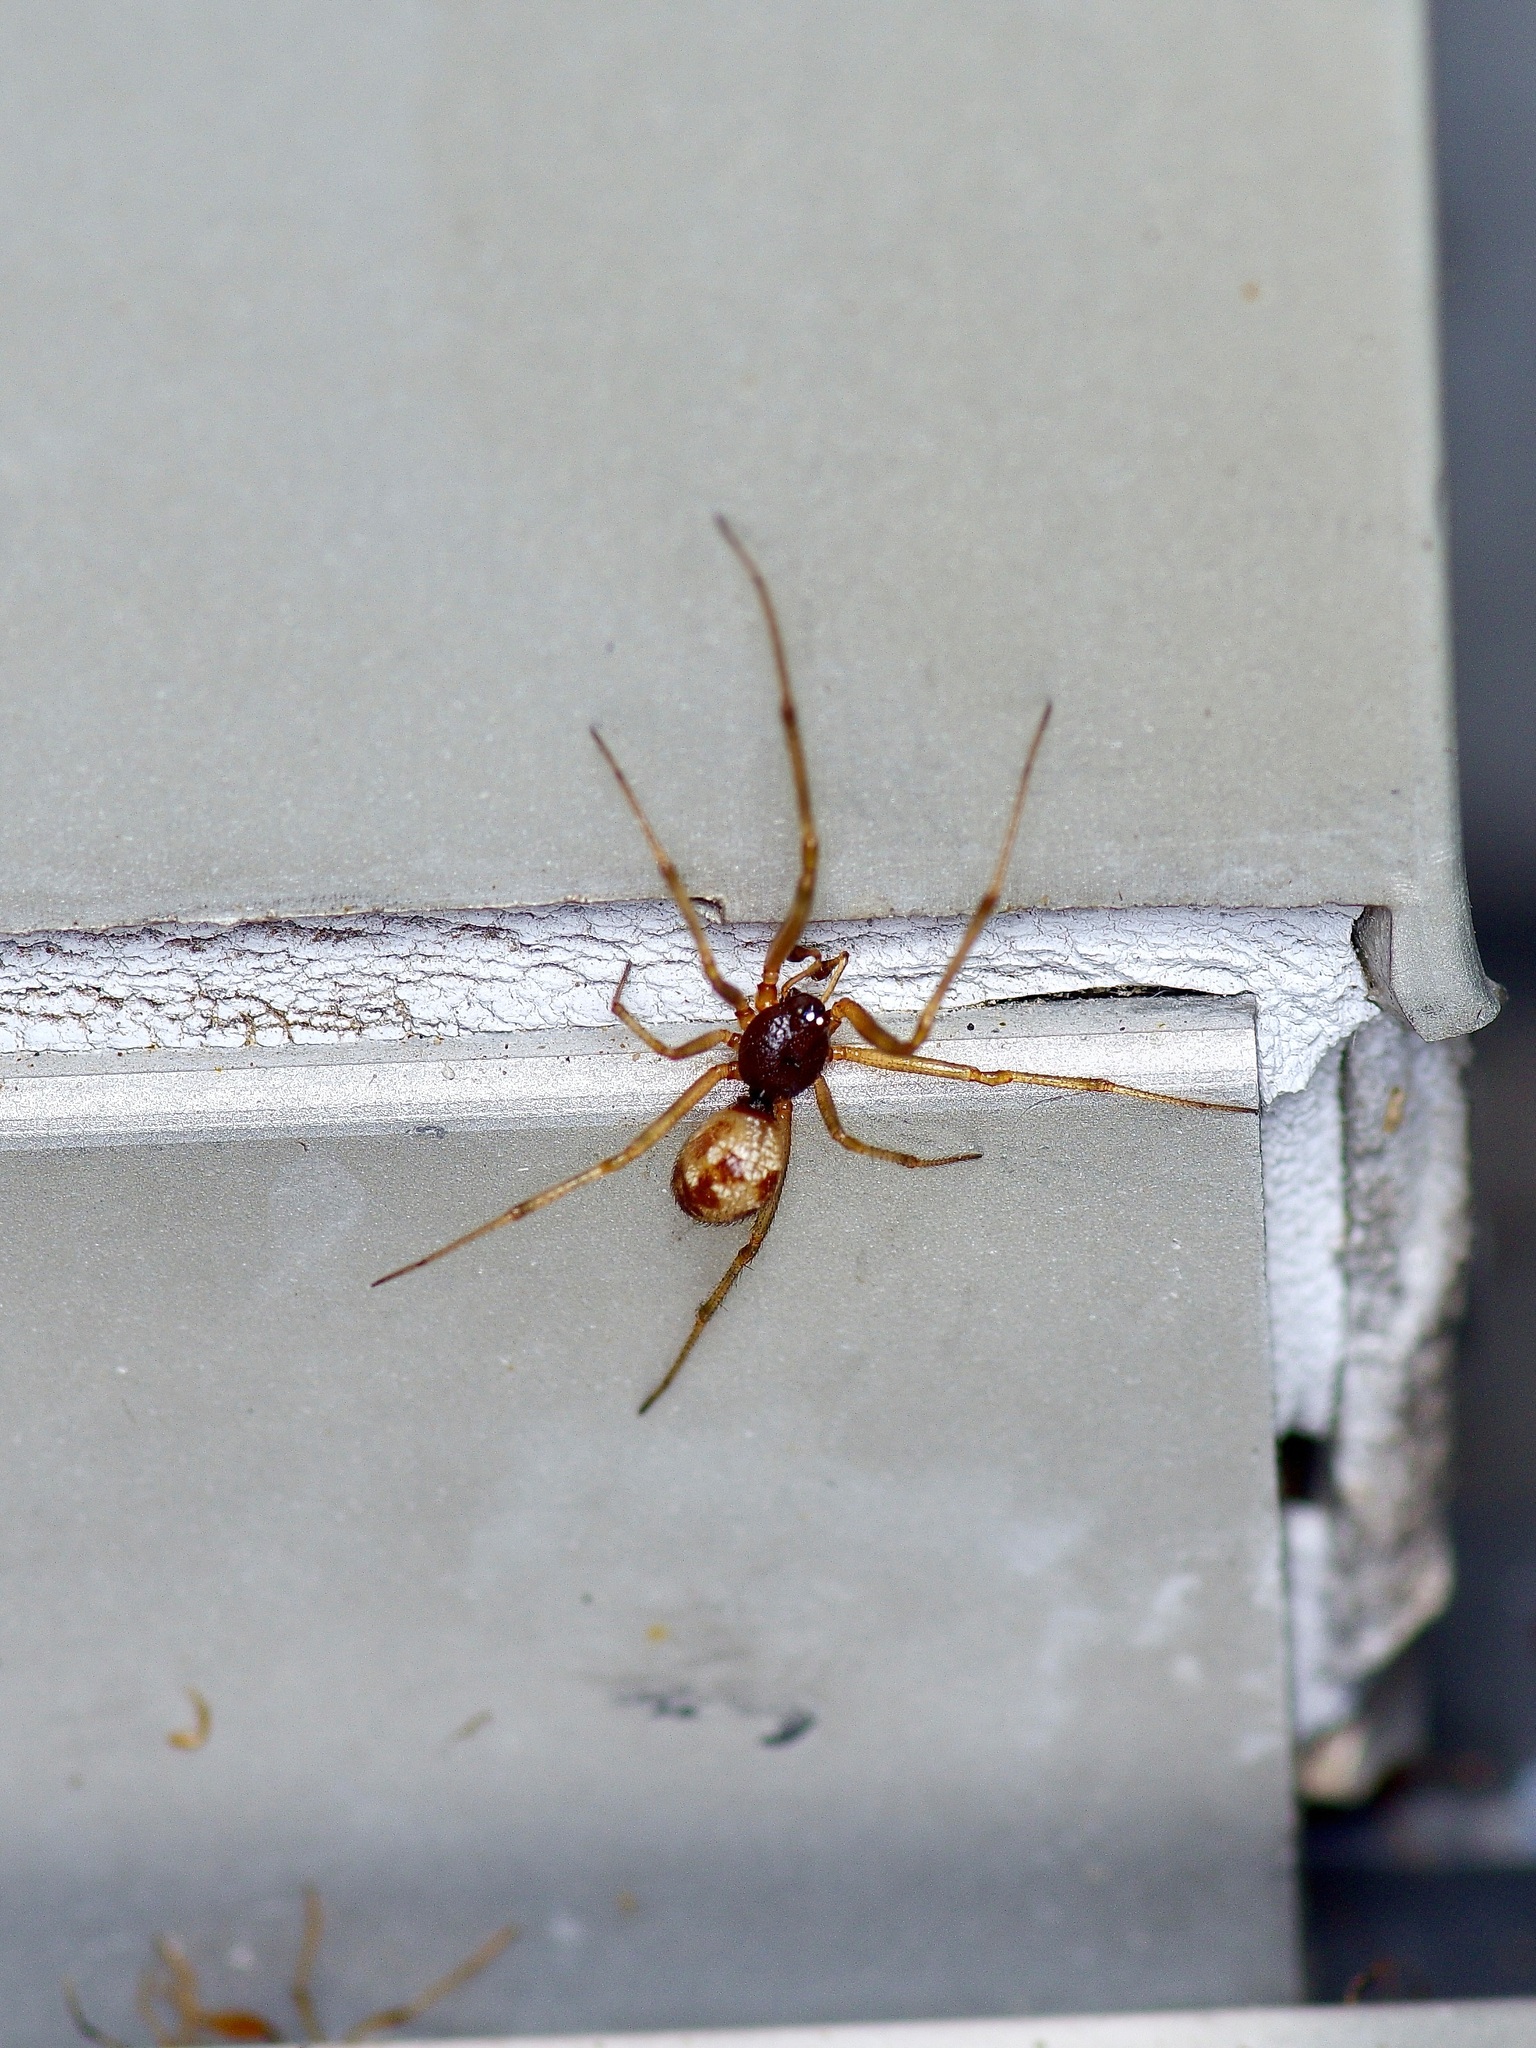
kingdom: Animalia
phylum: Arthropoda
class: Arachnida
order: Araneae
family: Theridiidae
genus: Steatoda
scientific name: Steatoda triangulosa
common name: Triangulate bud spider
